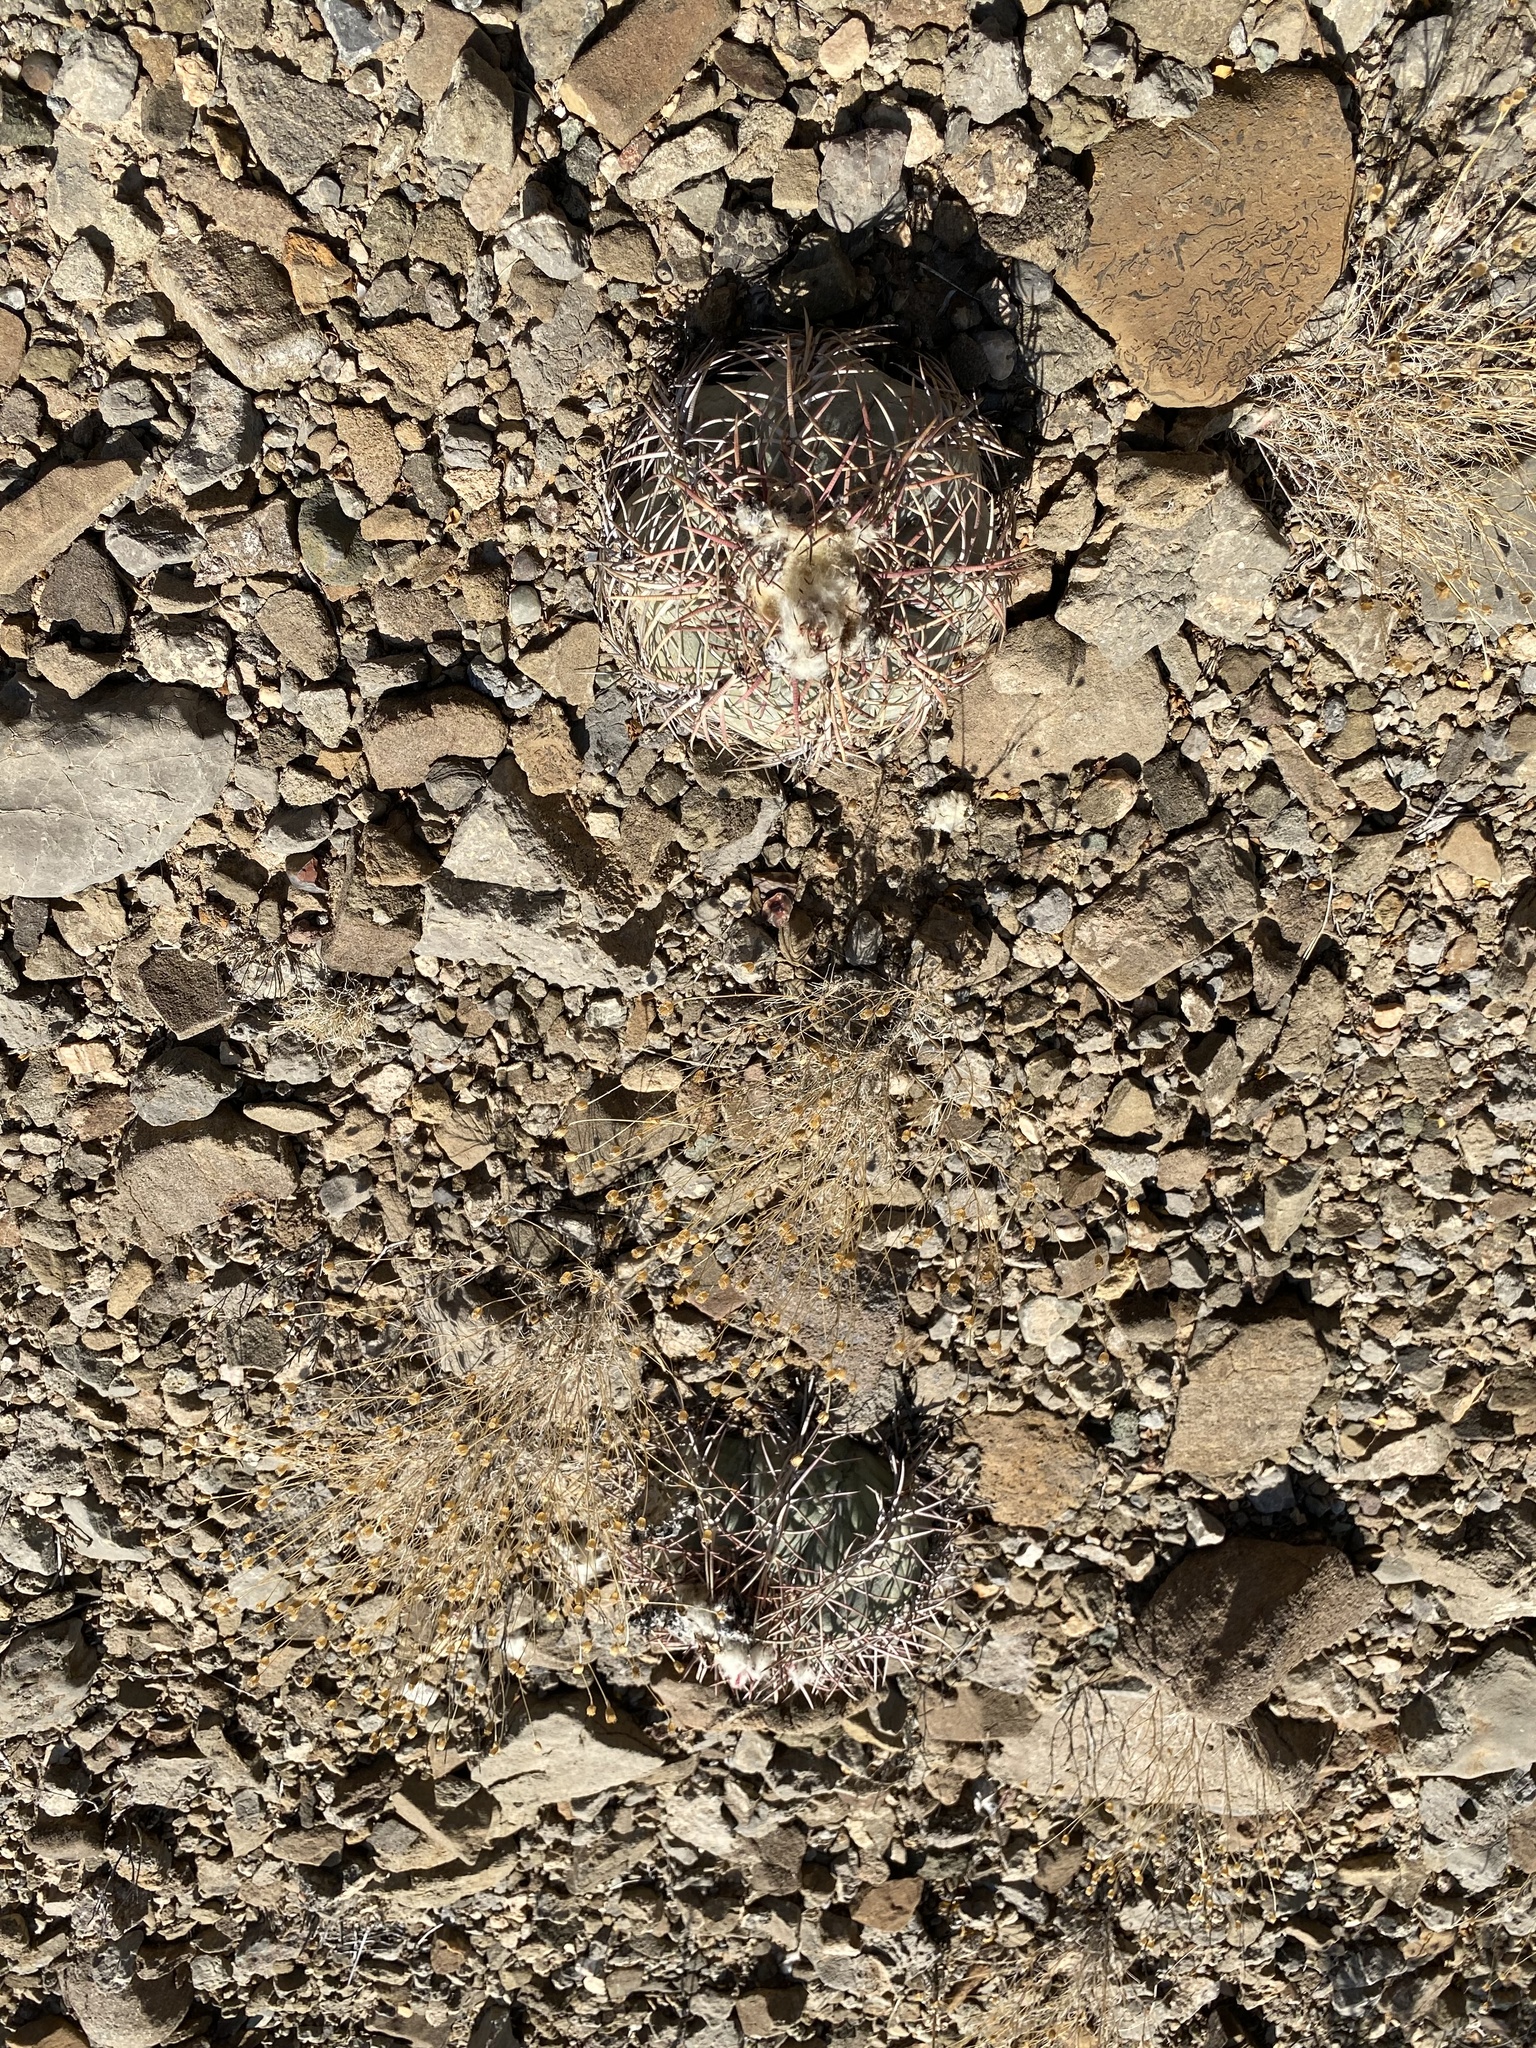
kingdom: Plantae
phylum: Tracheophyta
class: Magnoliopsida
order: Caryophyllales
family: Cactaceae
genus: Echinocactus
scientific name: Echinocactus horizonthalonius
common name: Devilshead
